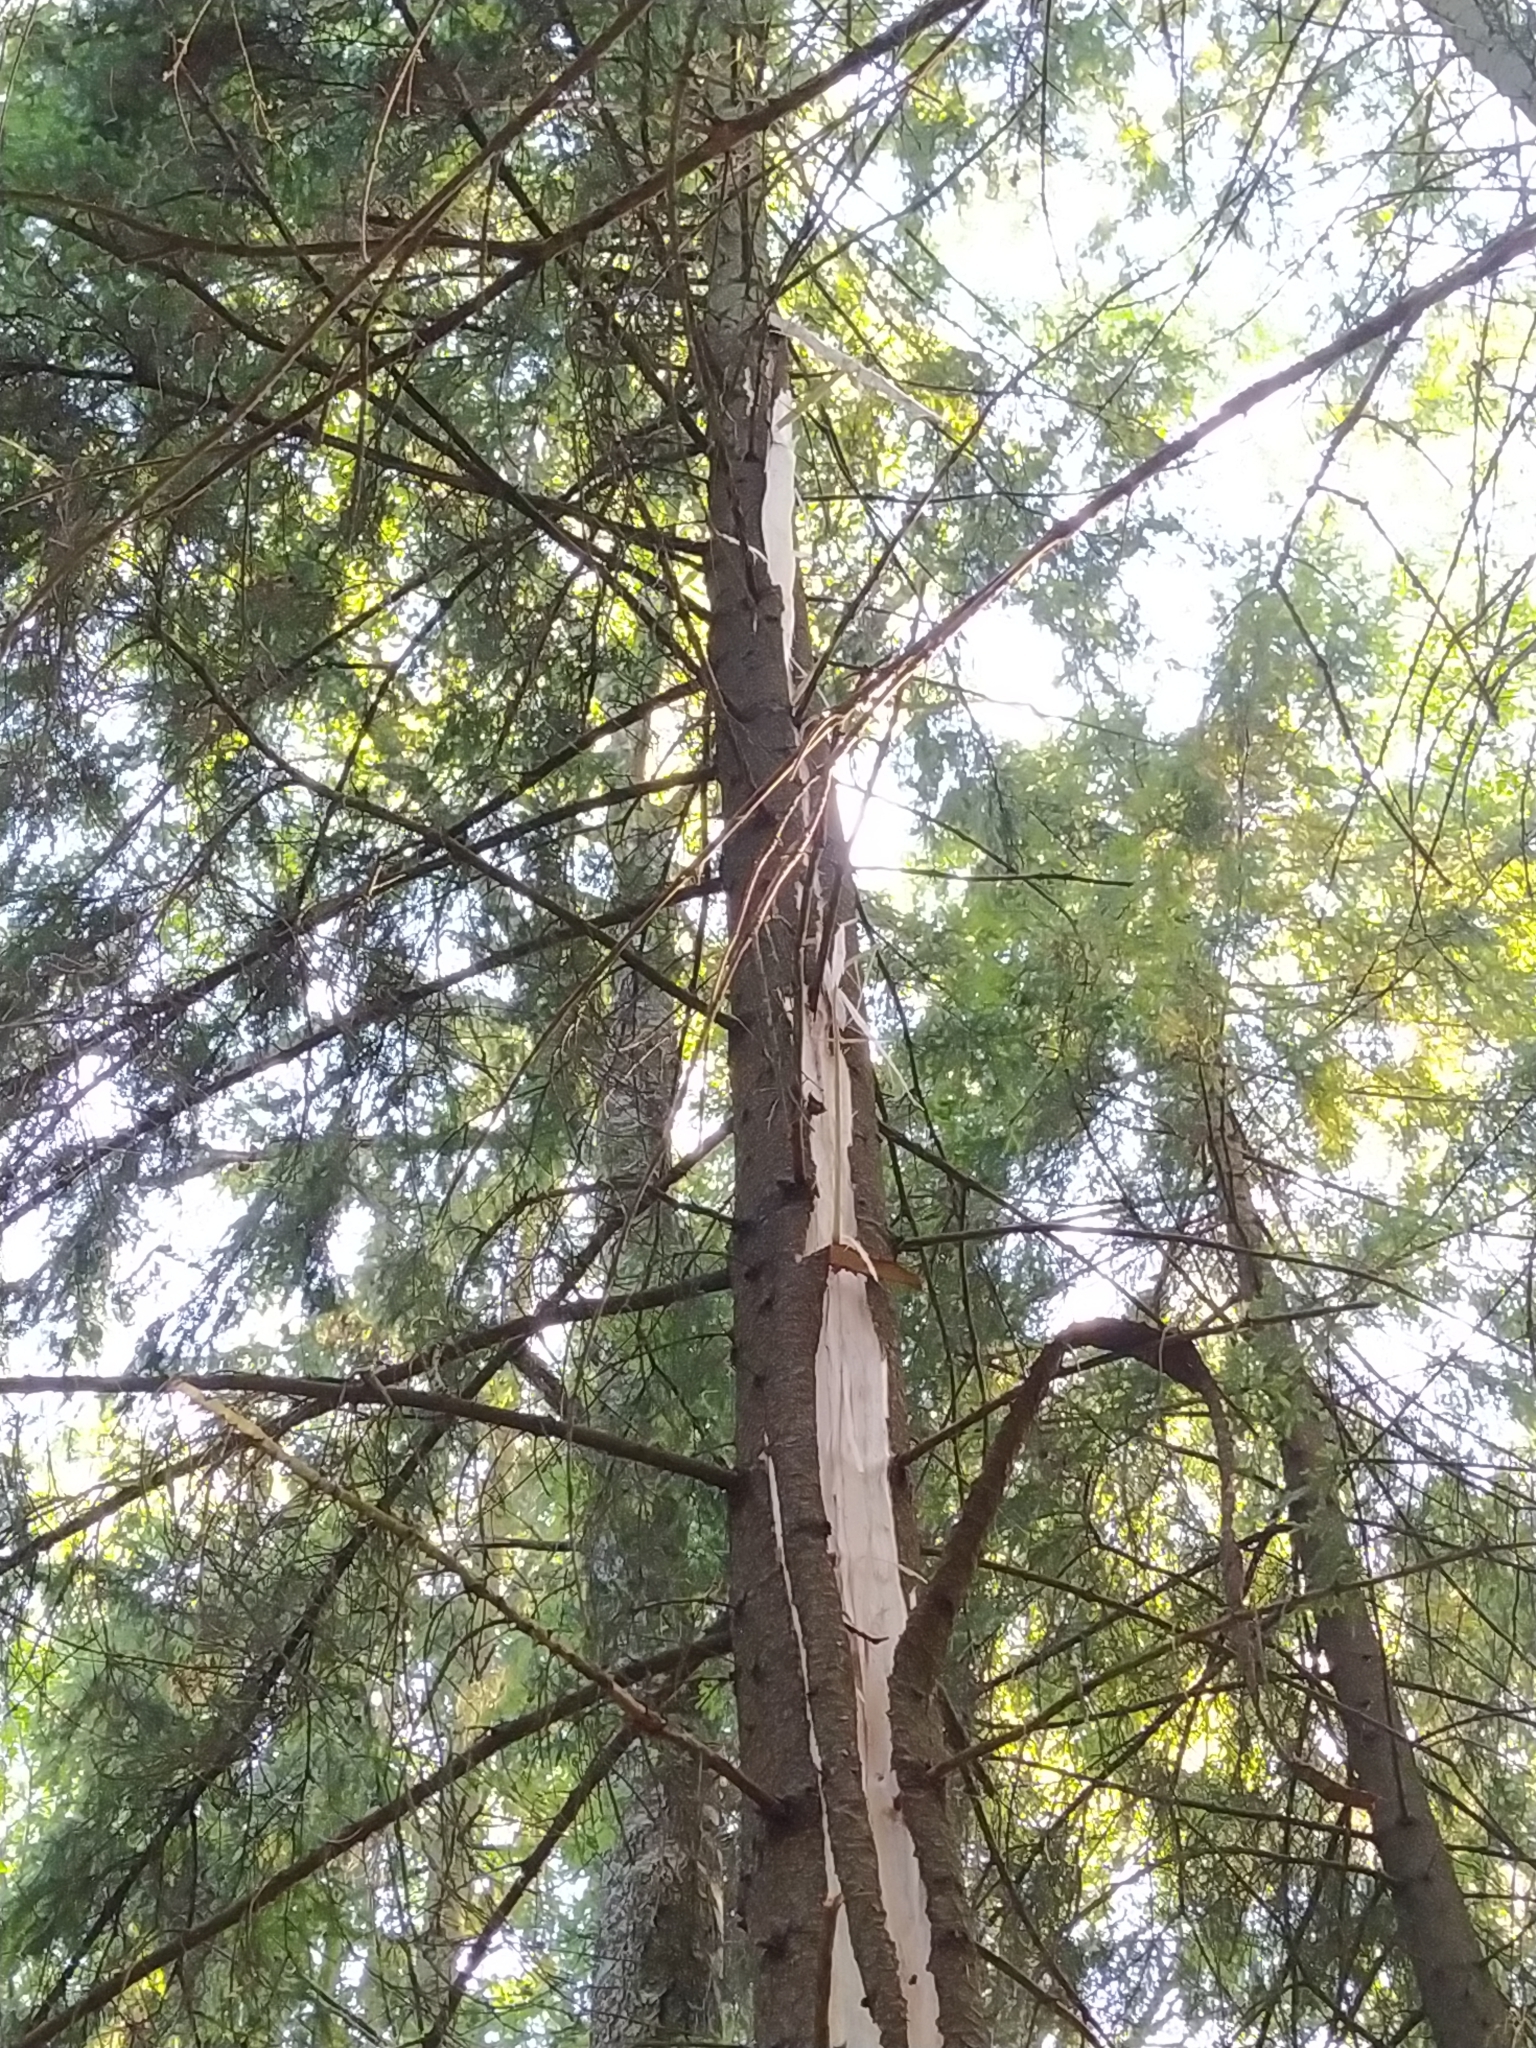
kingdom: Plantae
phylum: Tracheophyta
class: Pinopsida
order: Pinales
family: Pinaceae
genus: Picea
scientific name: Picea abies
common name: Norway spruce
